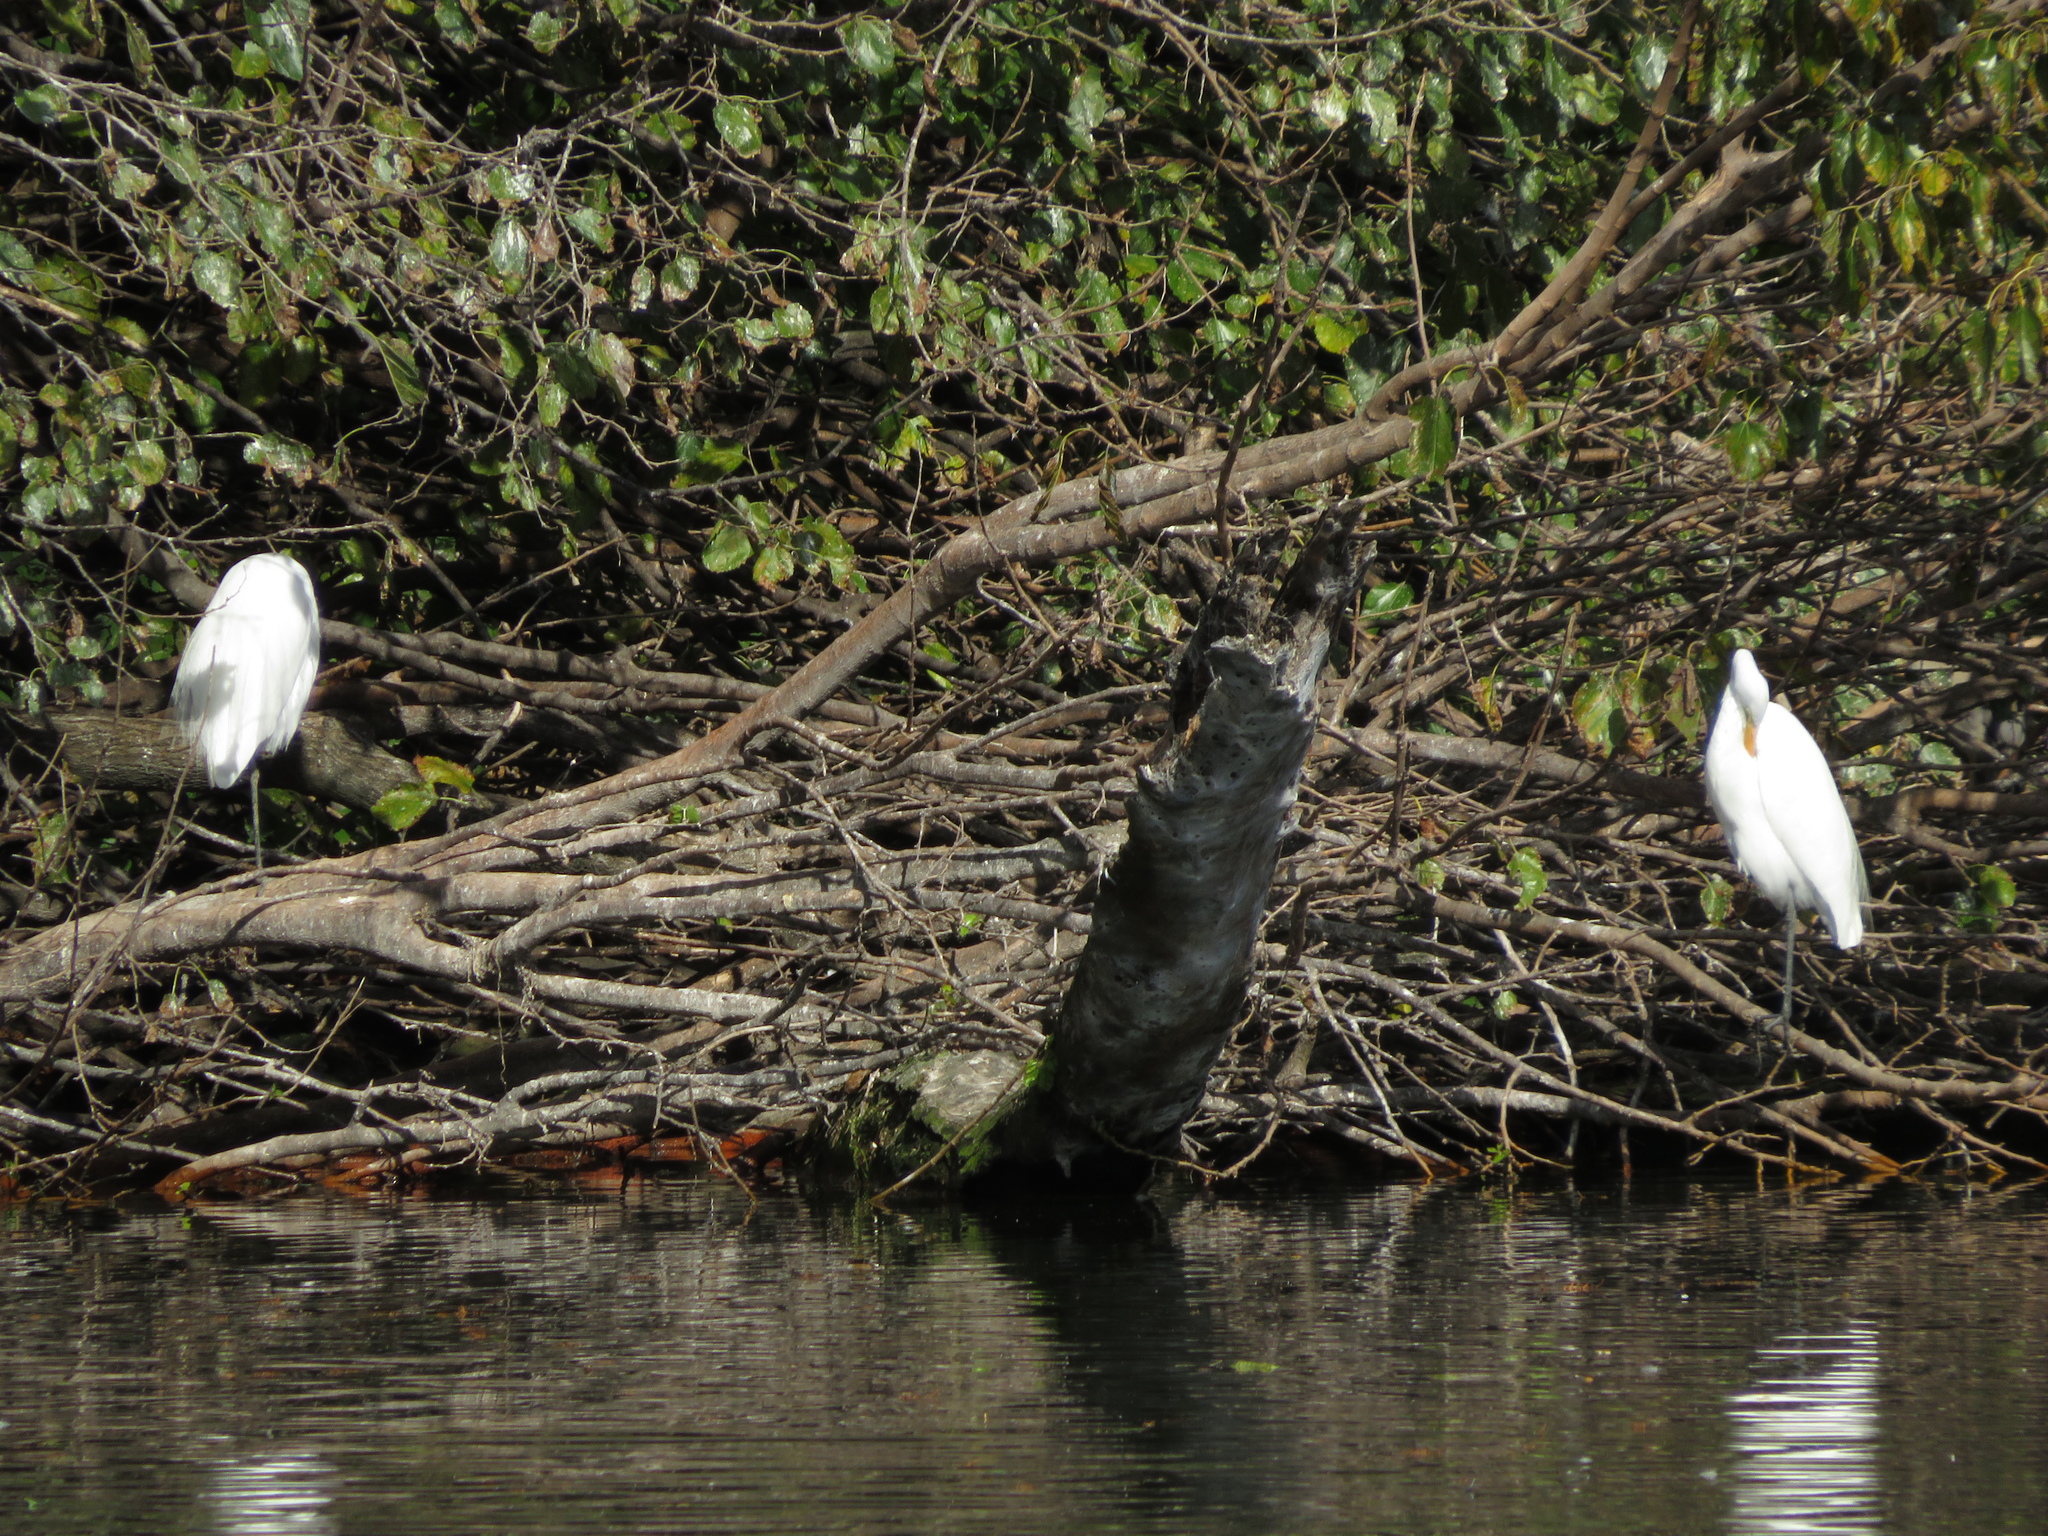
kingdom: Animalia
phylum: Chordata
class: Aves
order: Pelecaniformes
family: Ardeidae
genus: Ardea
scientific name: Ardea alba
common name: Great egret
